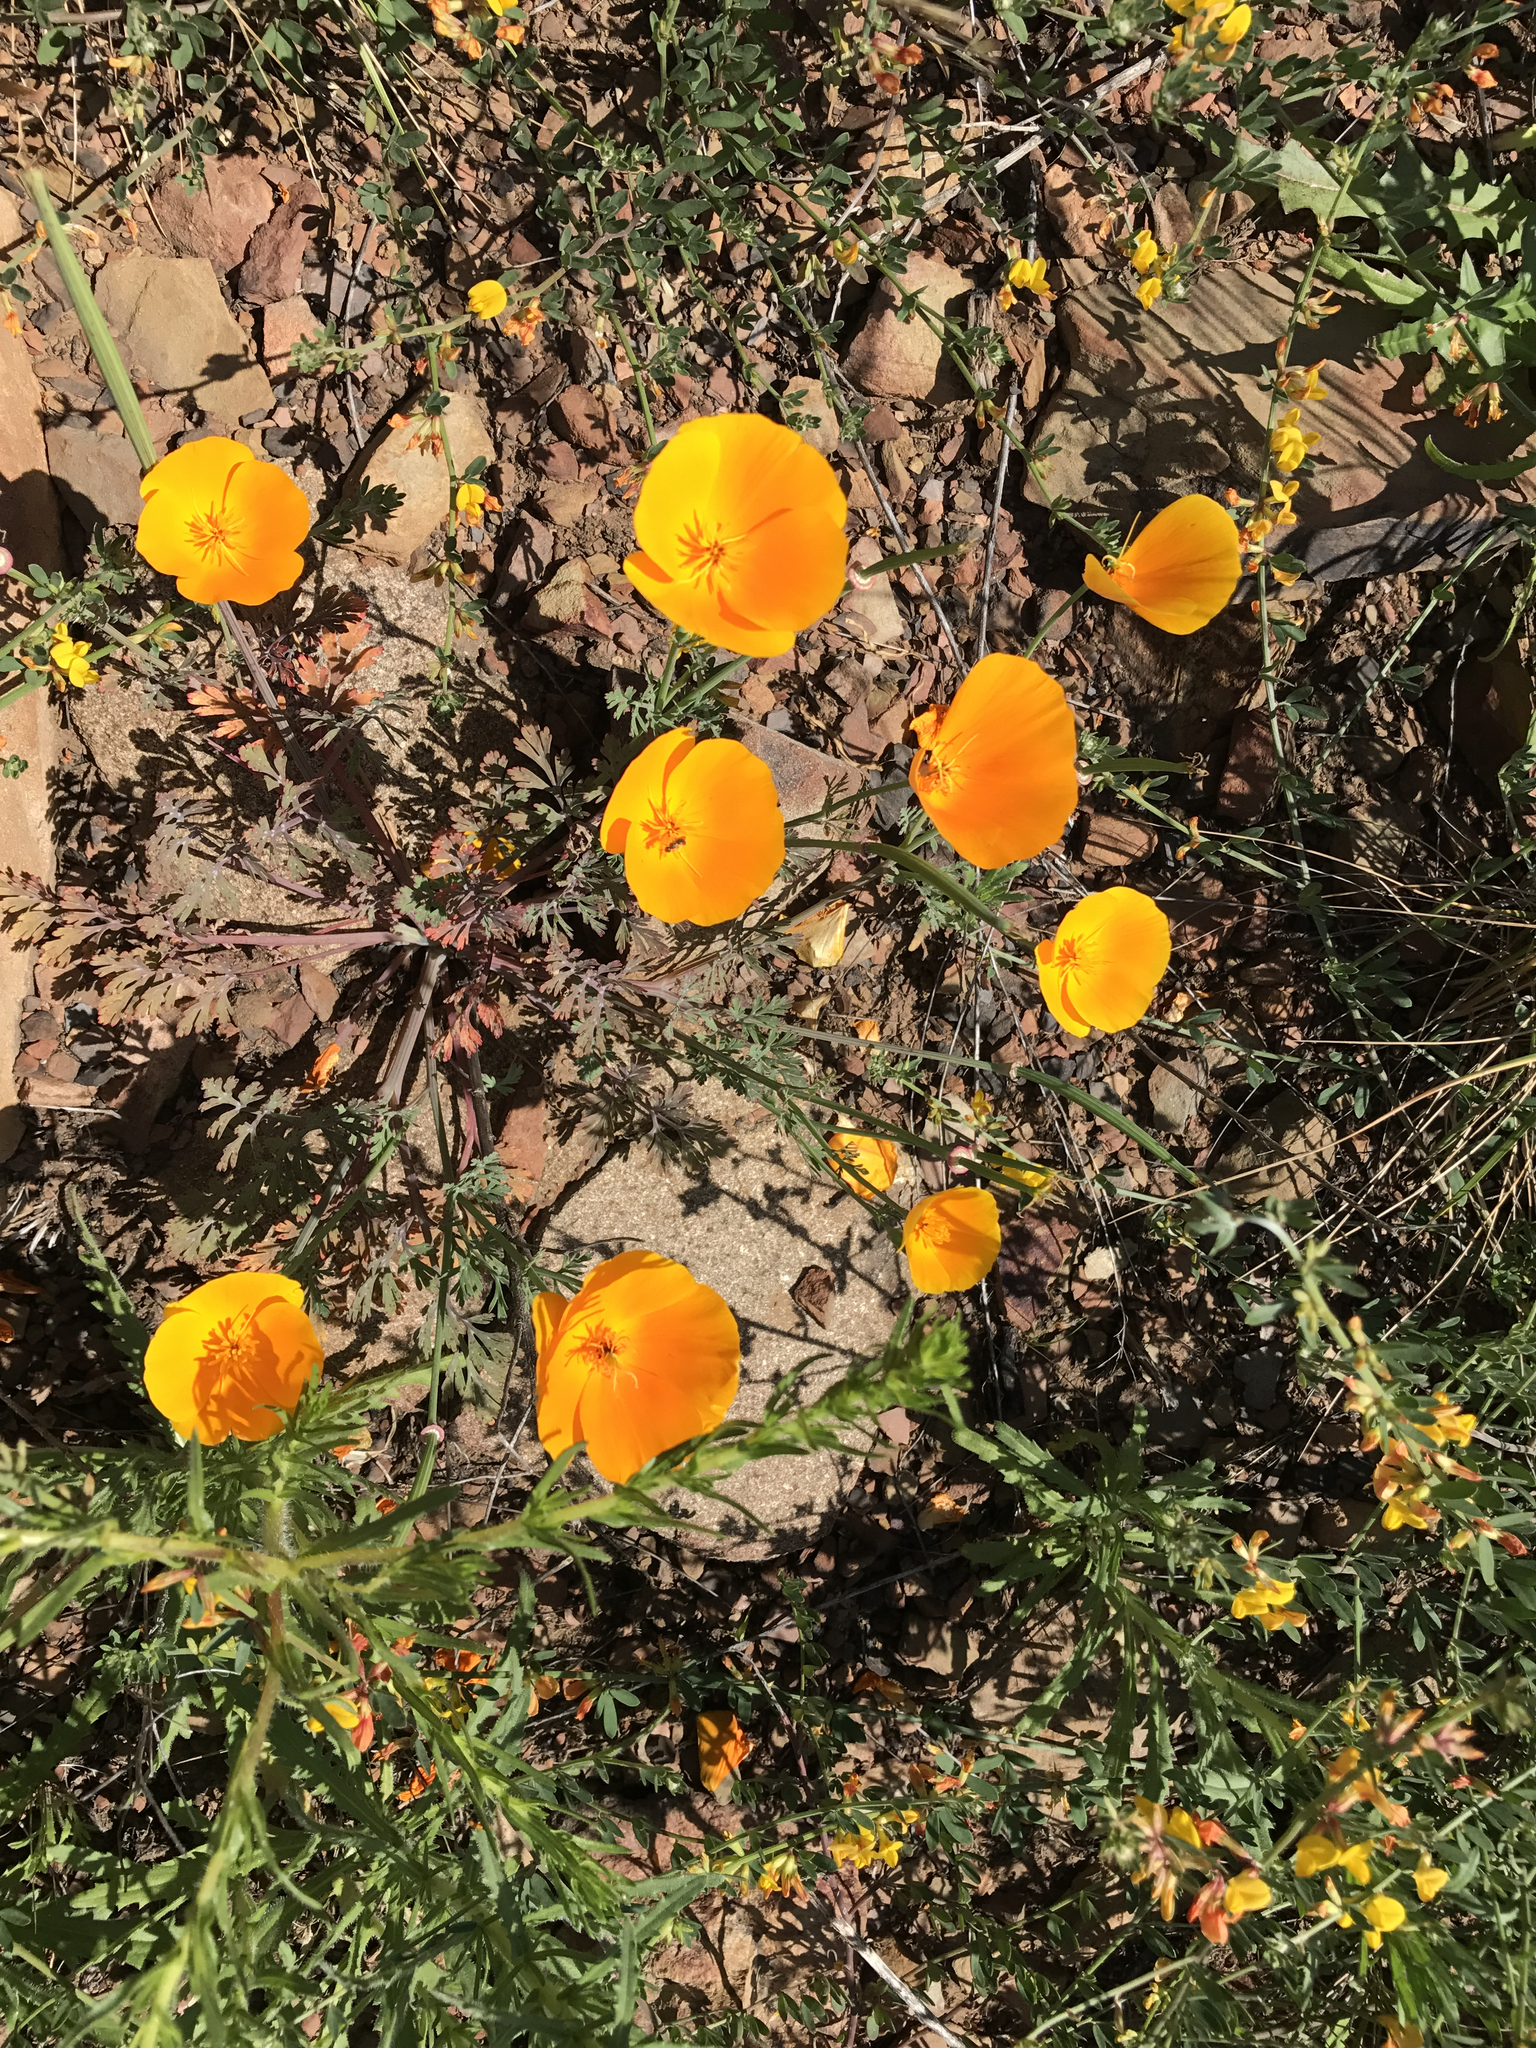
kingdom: Plantae
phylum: Tracheophyta
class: Magnoliopsida
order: Ranunculales
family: Papaveraceae
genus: Eschscholzia
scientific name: Eschscholzia californica
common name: California poppy
